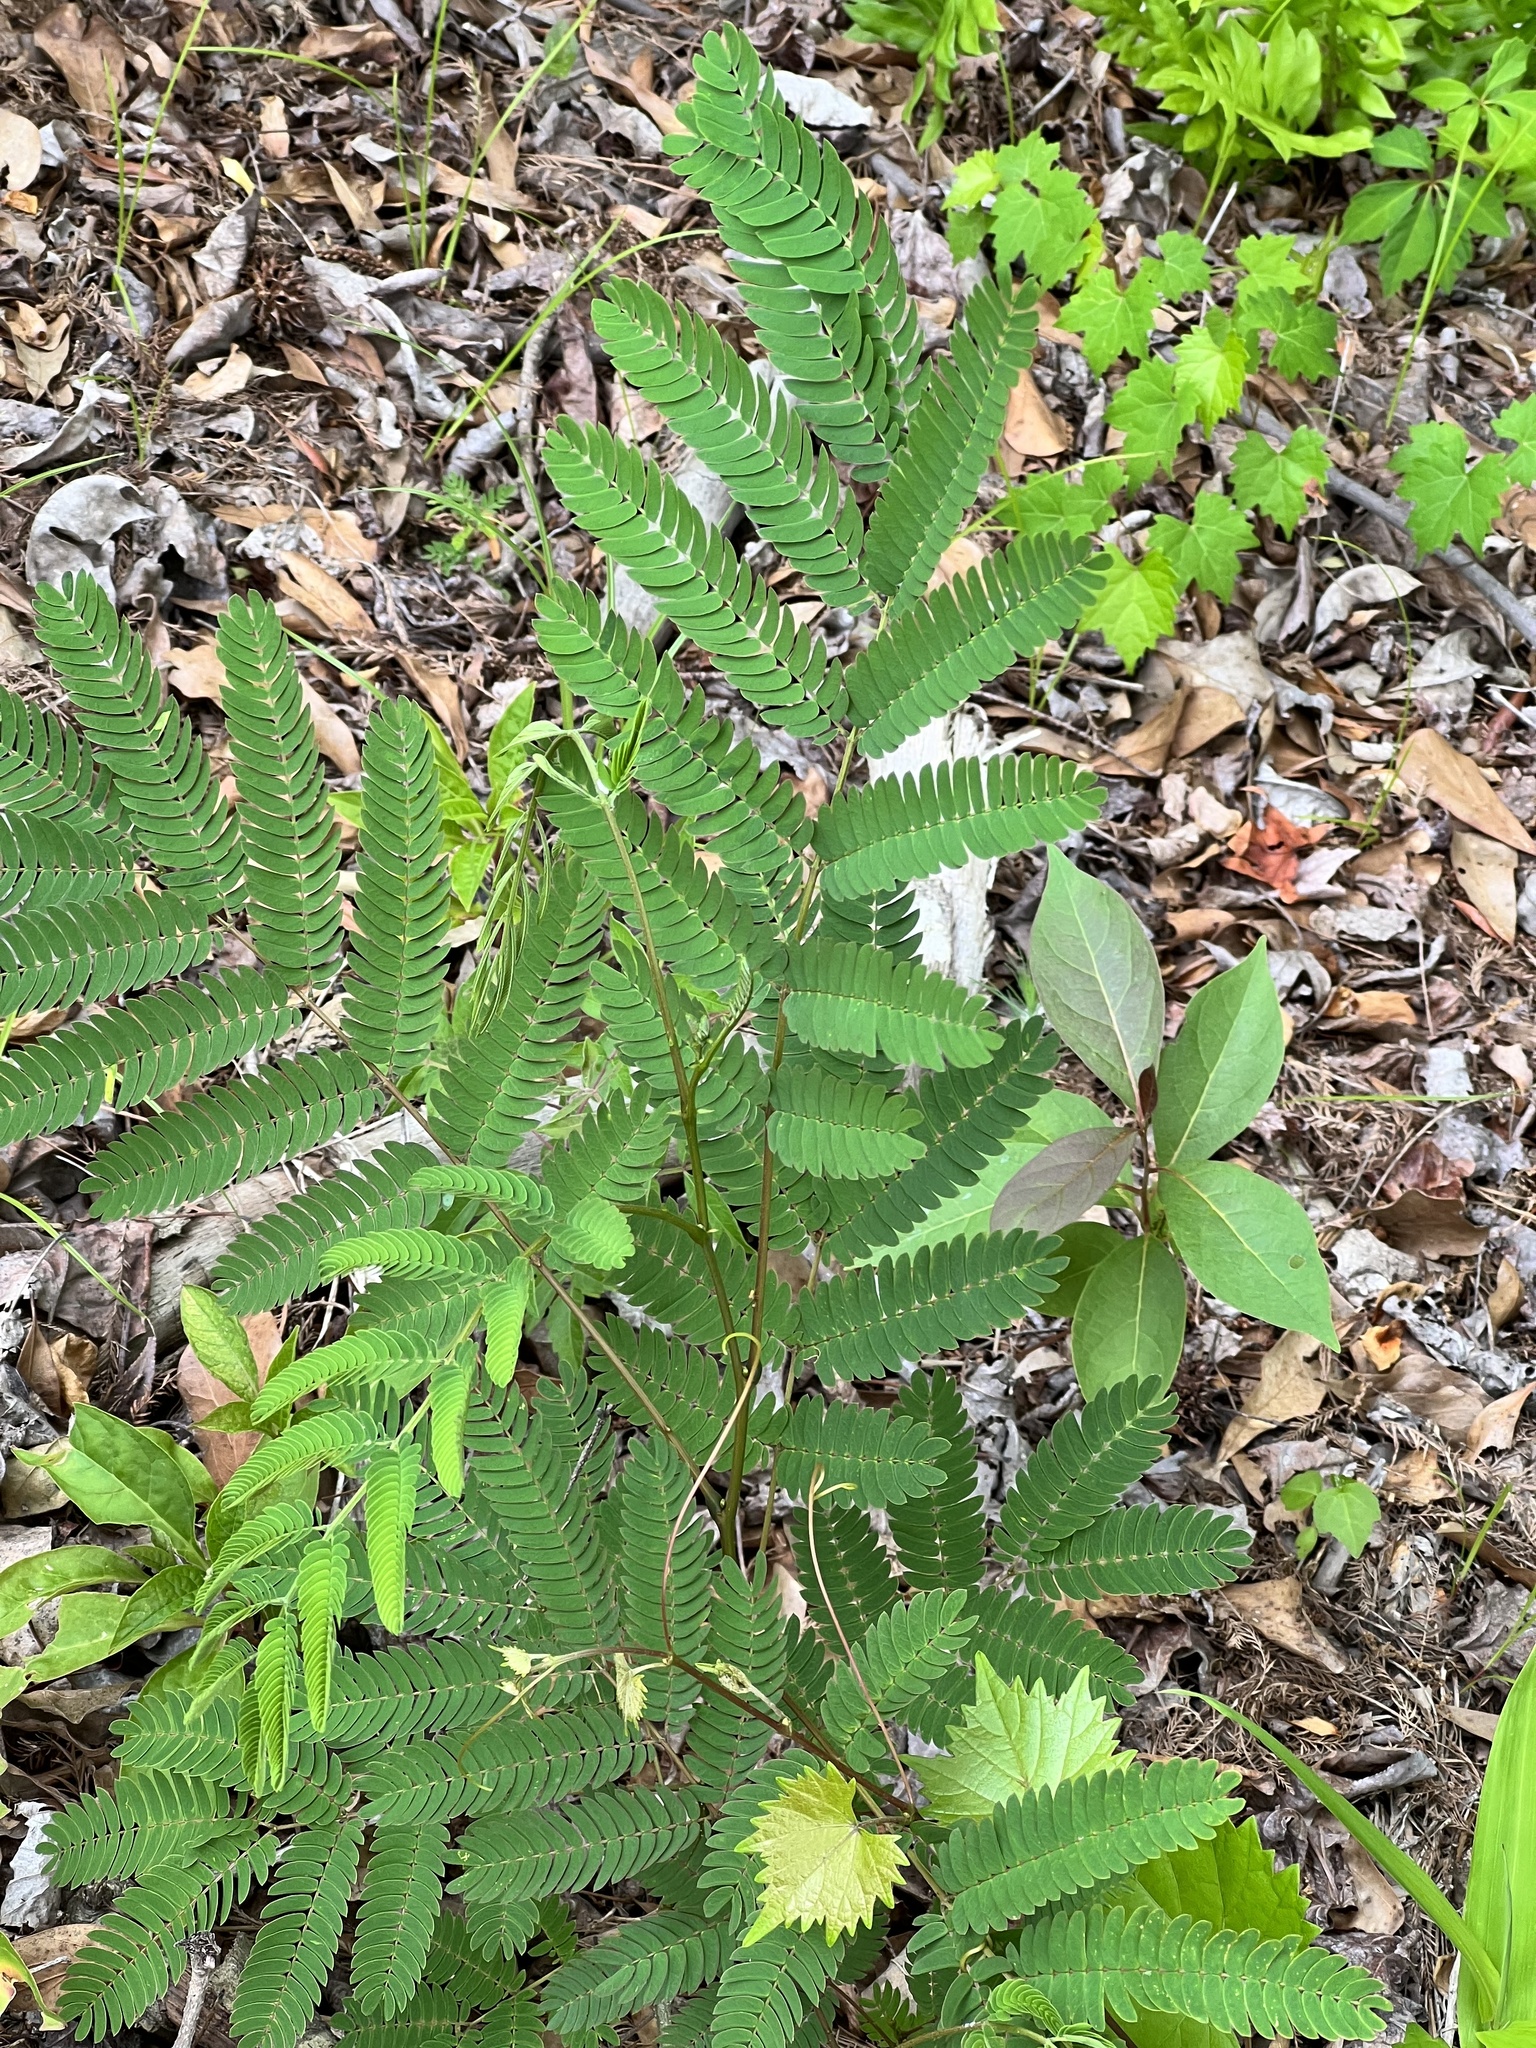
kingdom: Plantae
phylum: Tracheophyta
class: Magnoliopsida
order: Fabales
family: Fabaceae
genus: Albizia
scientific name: Albizia julibrissin
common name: Silktree
